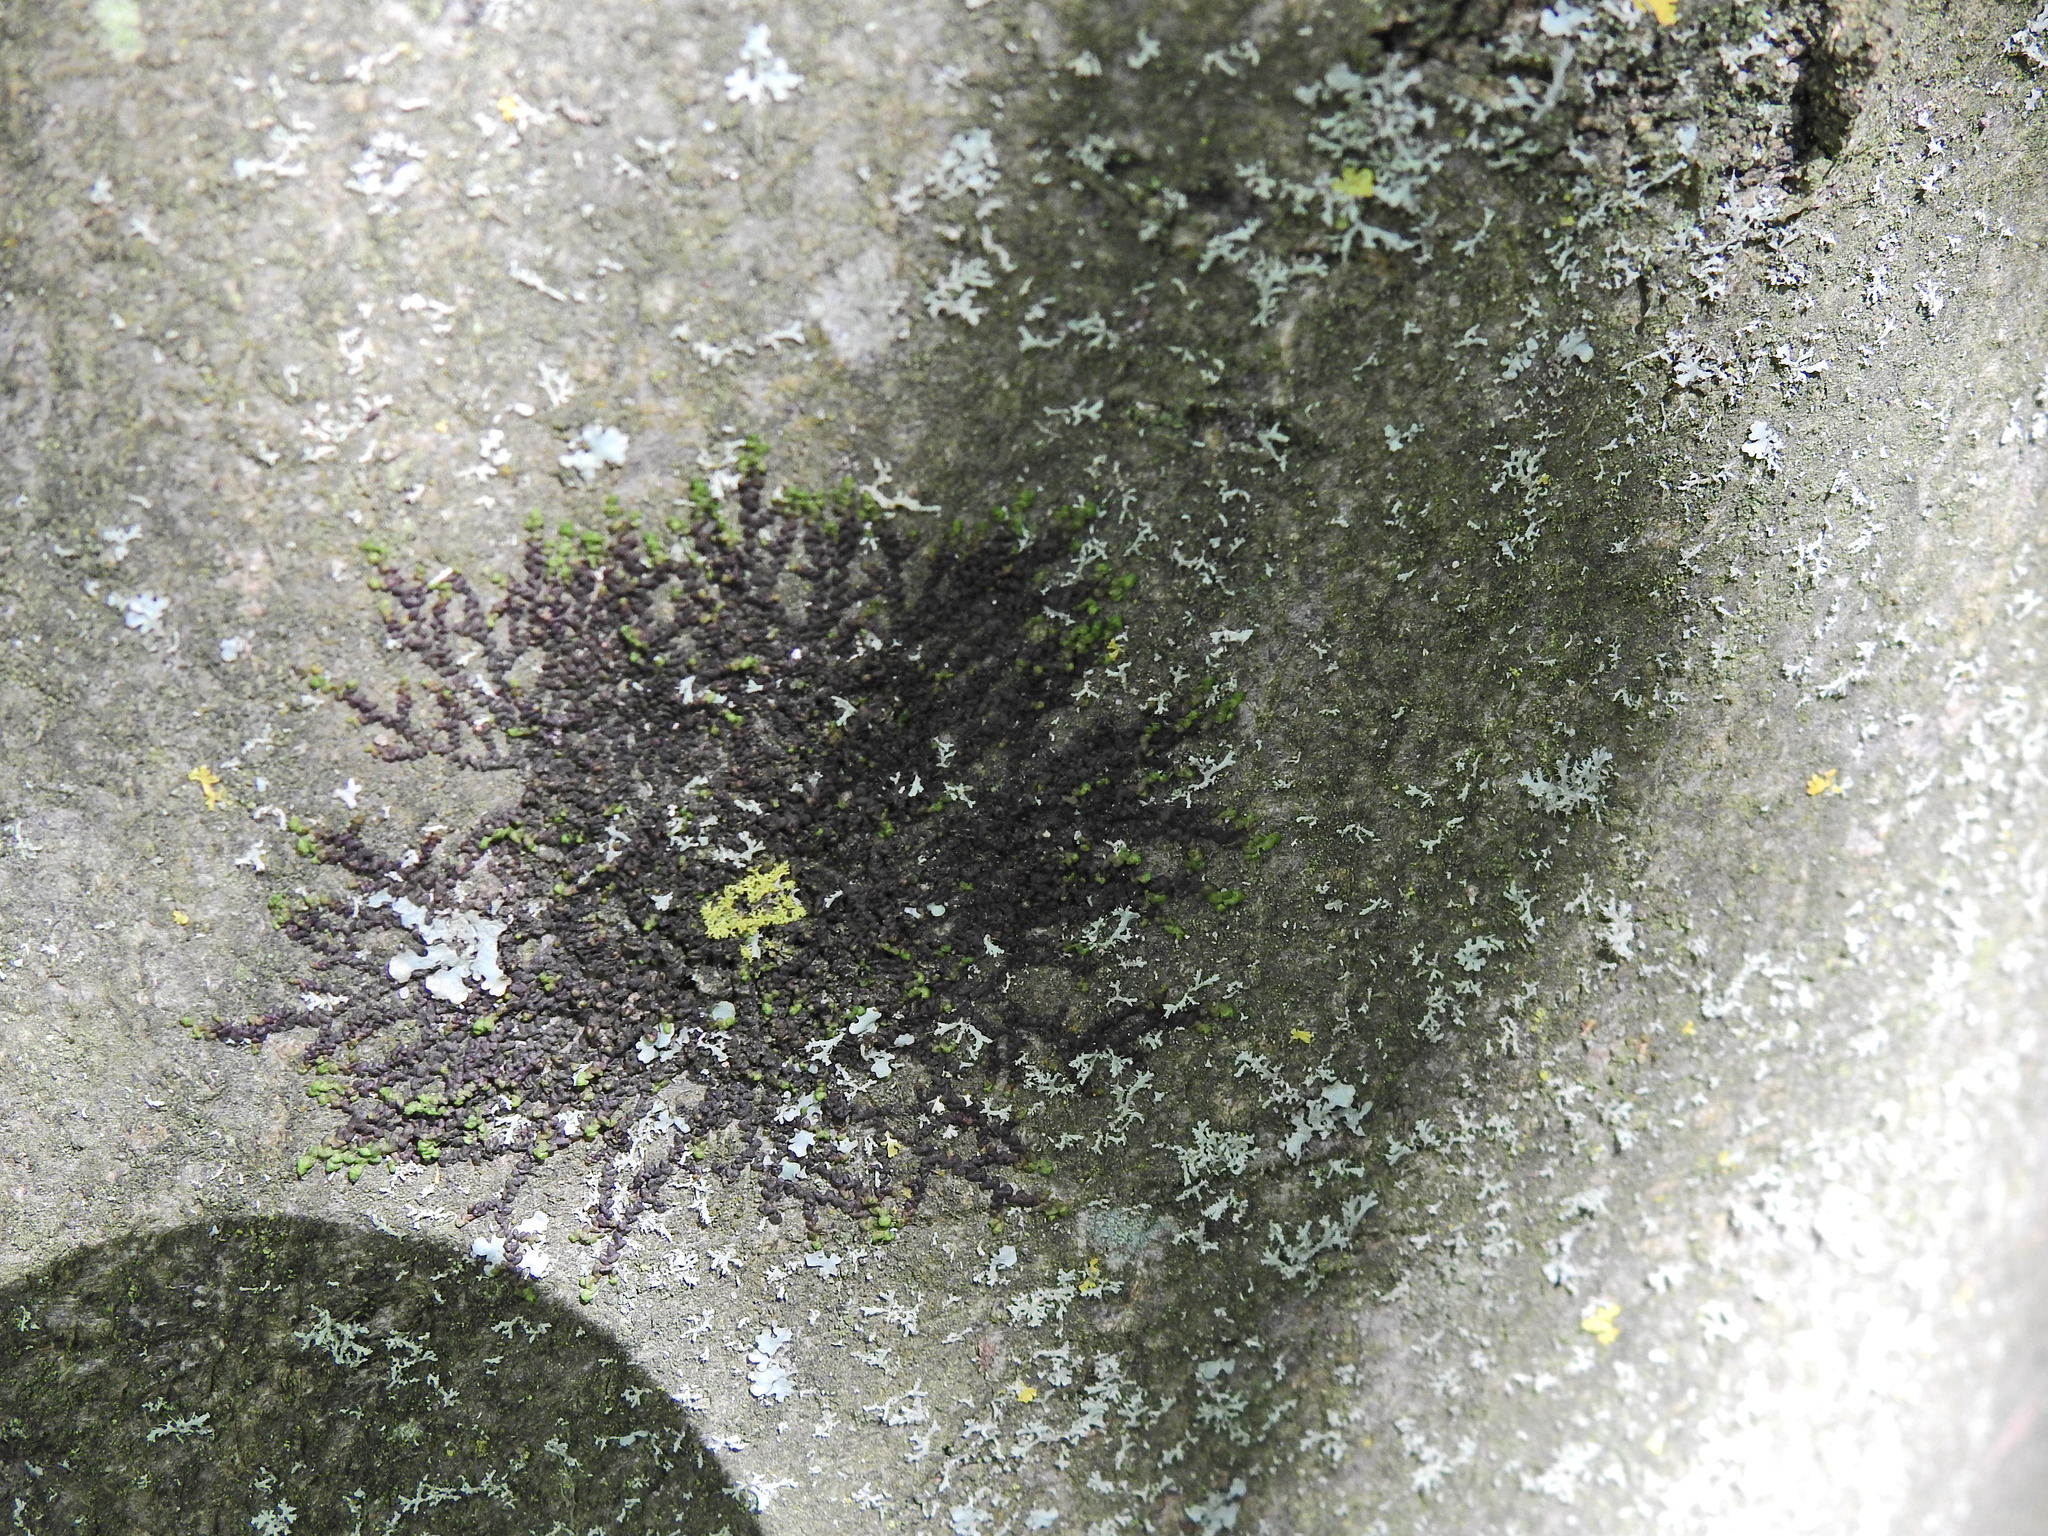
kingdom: Plantae
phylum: Marchantiophyta
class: Jungermanniopsida
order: Porellales
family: Frullaniaceae
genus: Frullania
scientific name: Frullania dilatata
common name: Dilated scalewort
